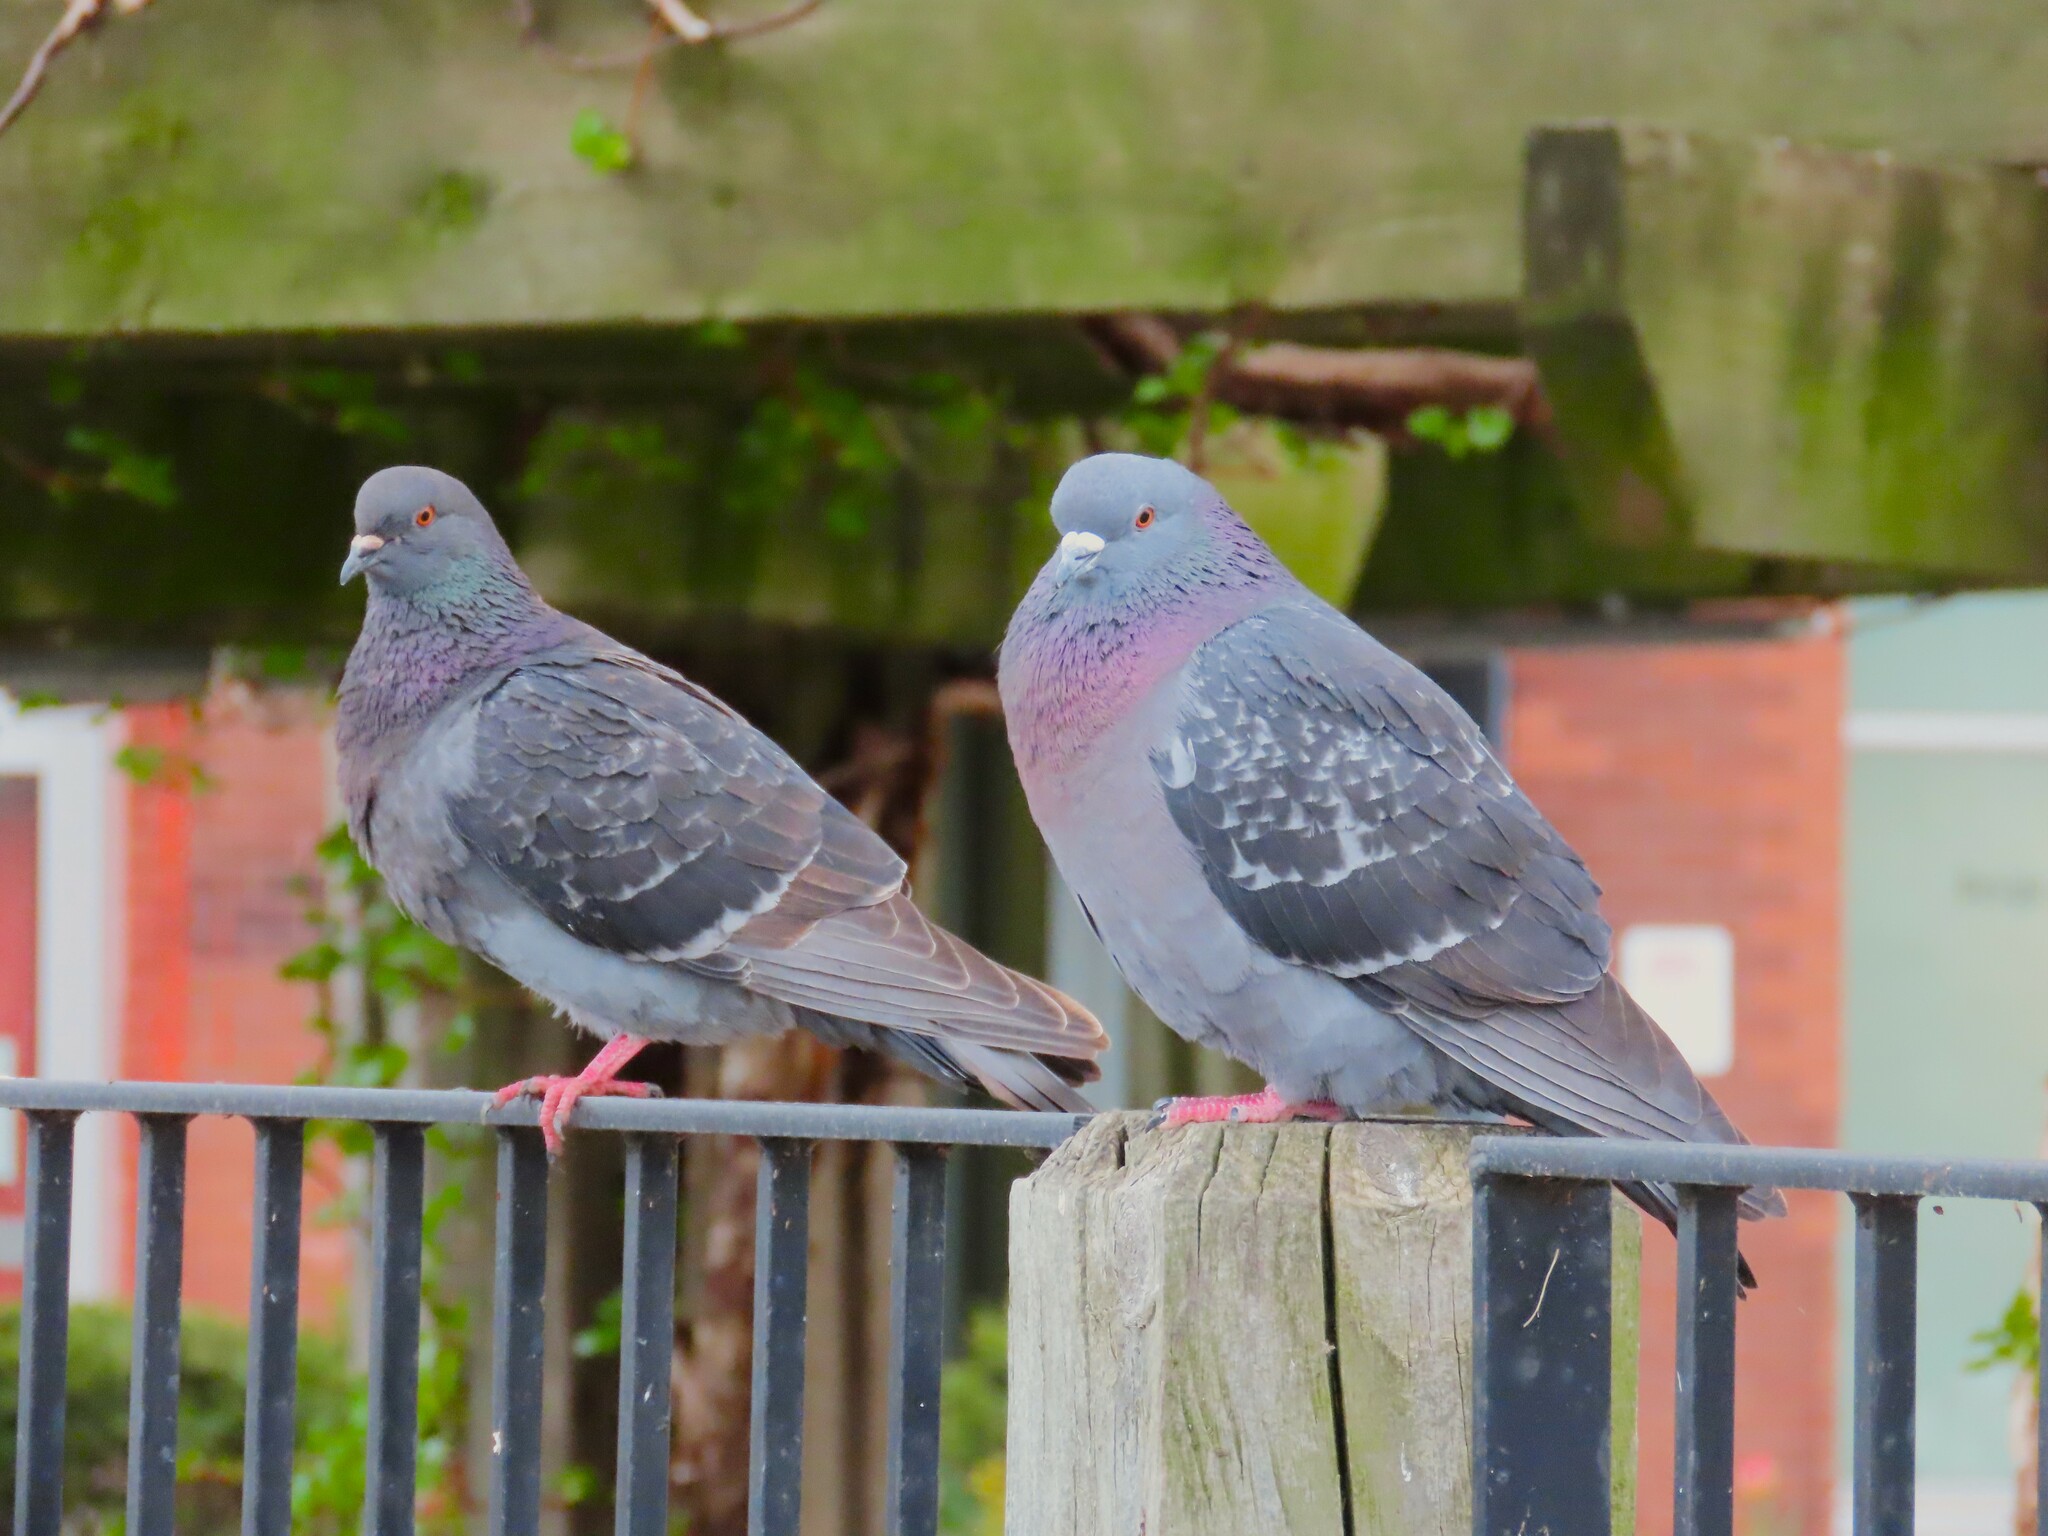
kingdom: Animalia
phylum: Chordata
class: Aves
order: Columbiformes
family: Columbidae
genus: Columba
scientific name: Columba livia
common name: Rock pigeon
